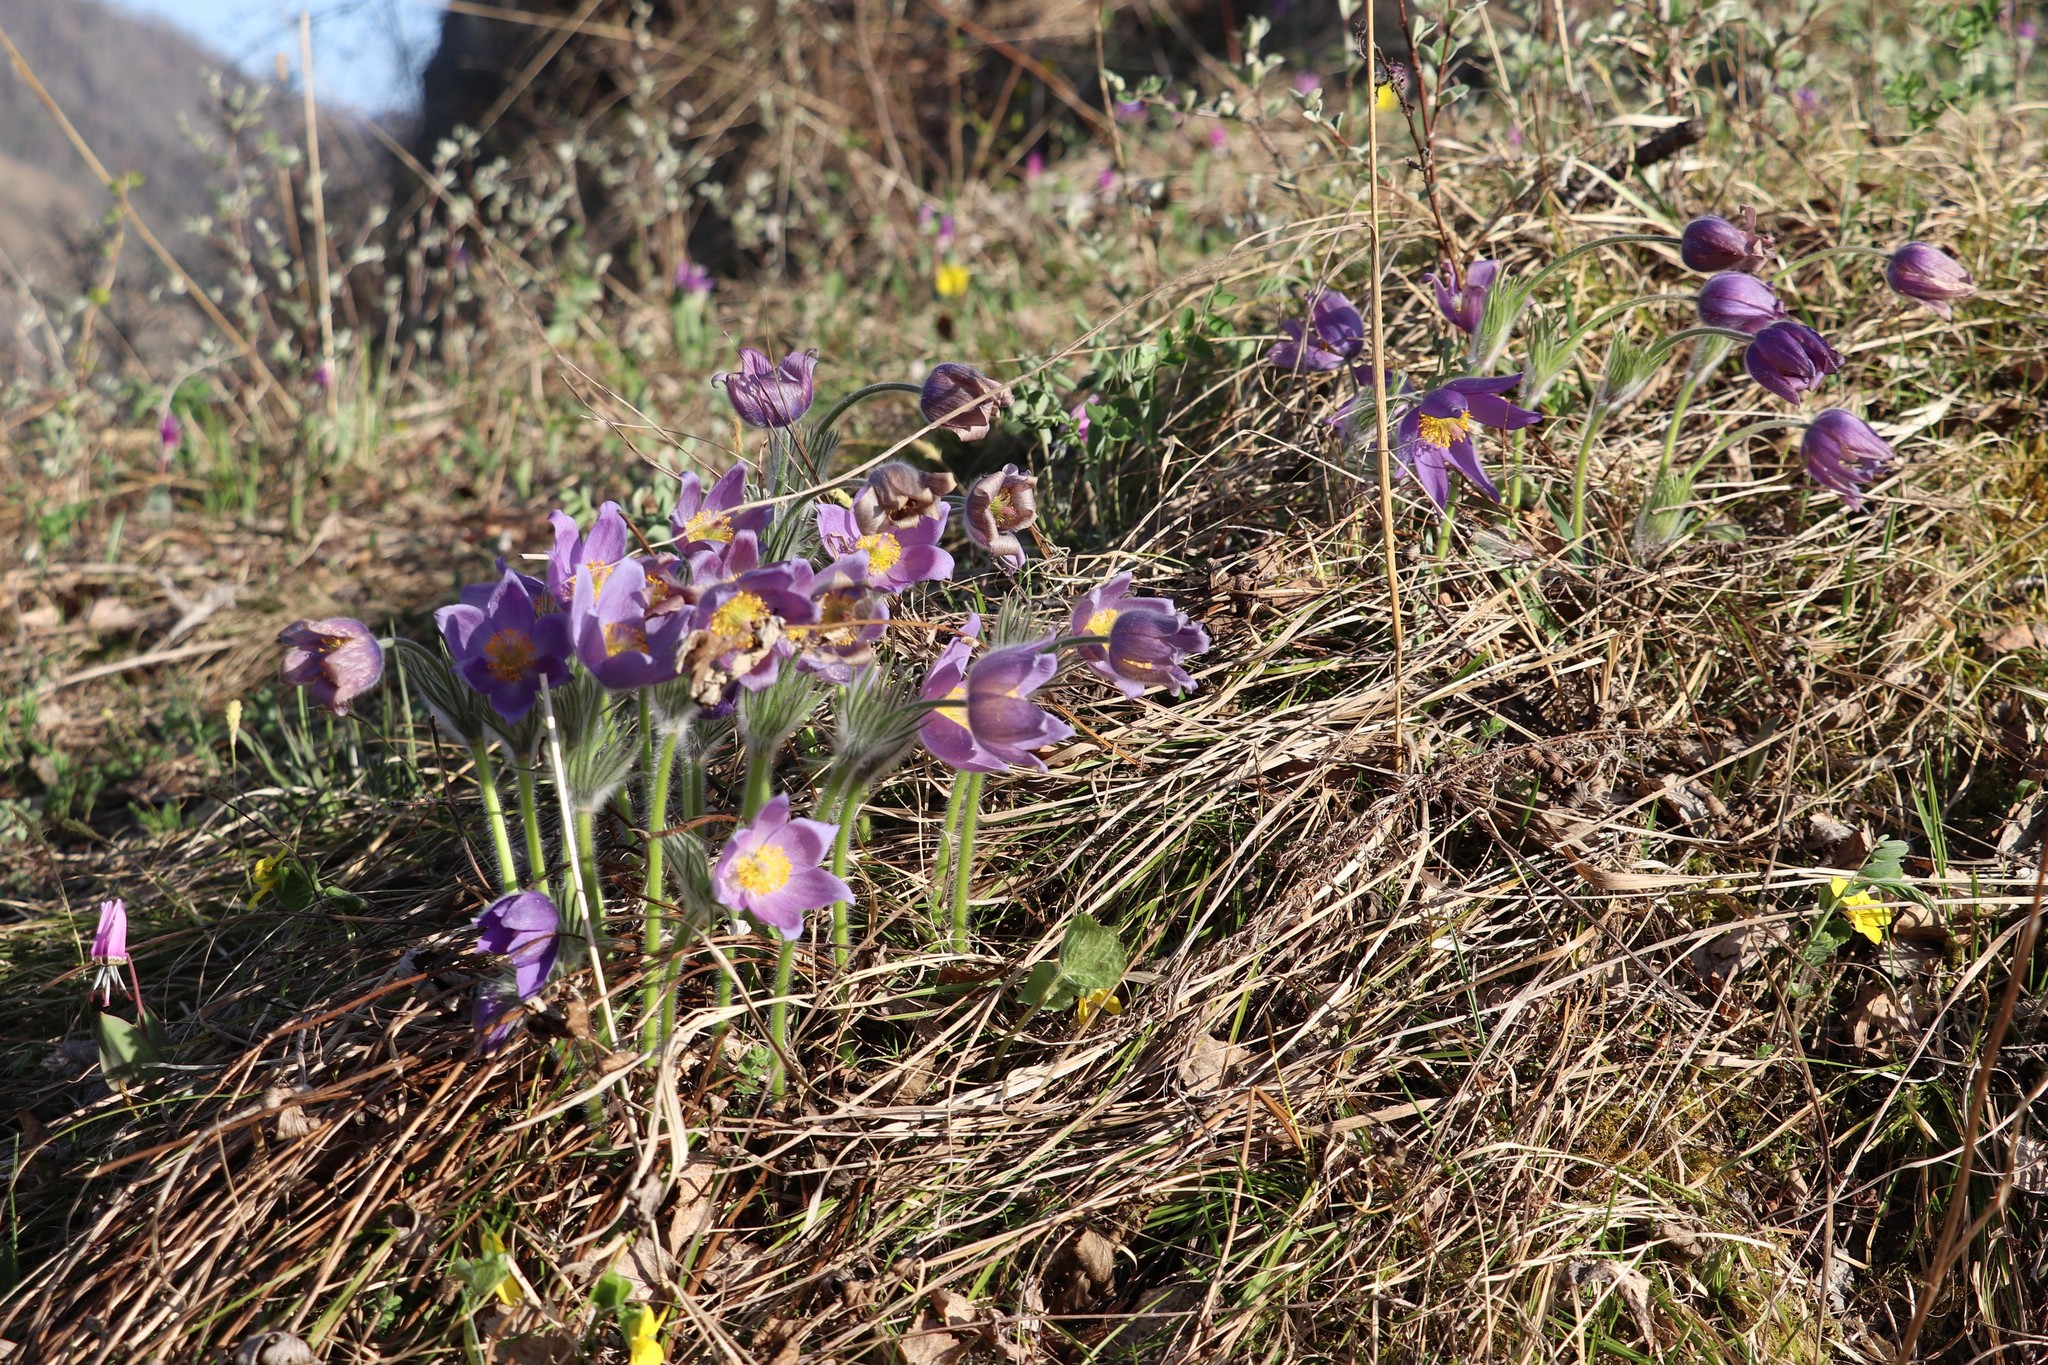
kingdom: Plantae
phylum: Tracheophyta
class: Magnoliopsida
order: Ranunculales
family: Ranunculaceae
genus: Pulsatilla
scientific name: Pulsatilla patens
